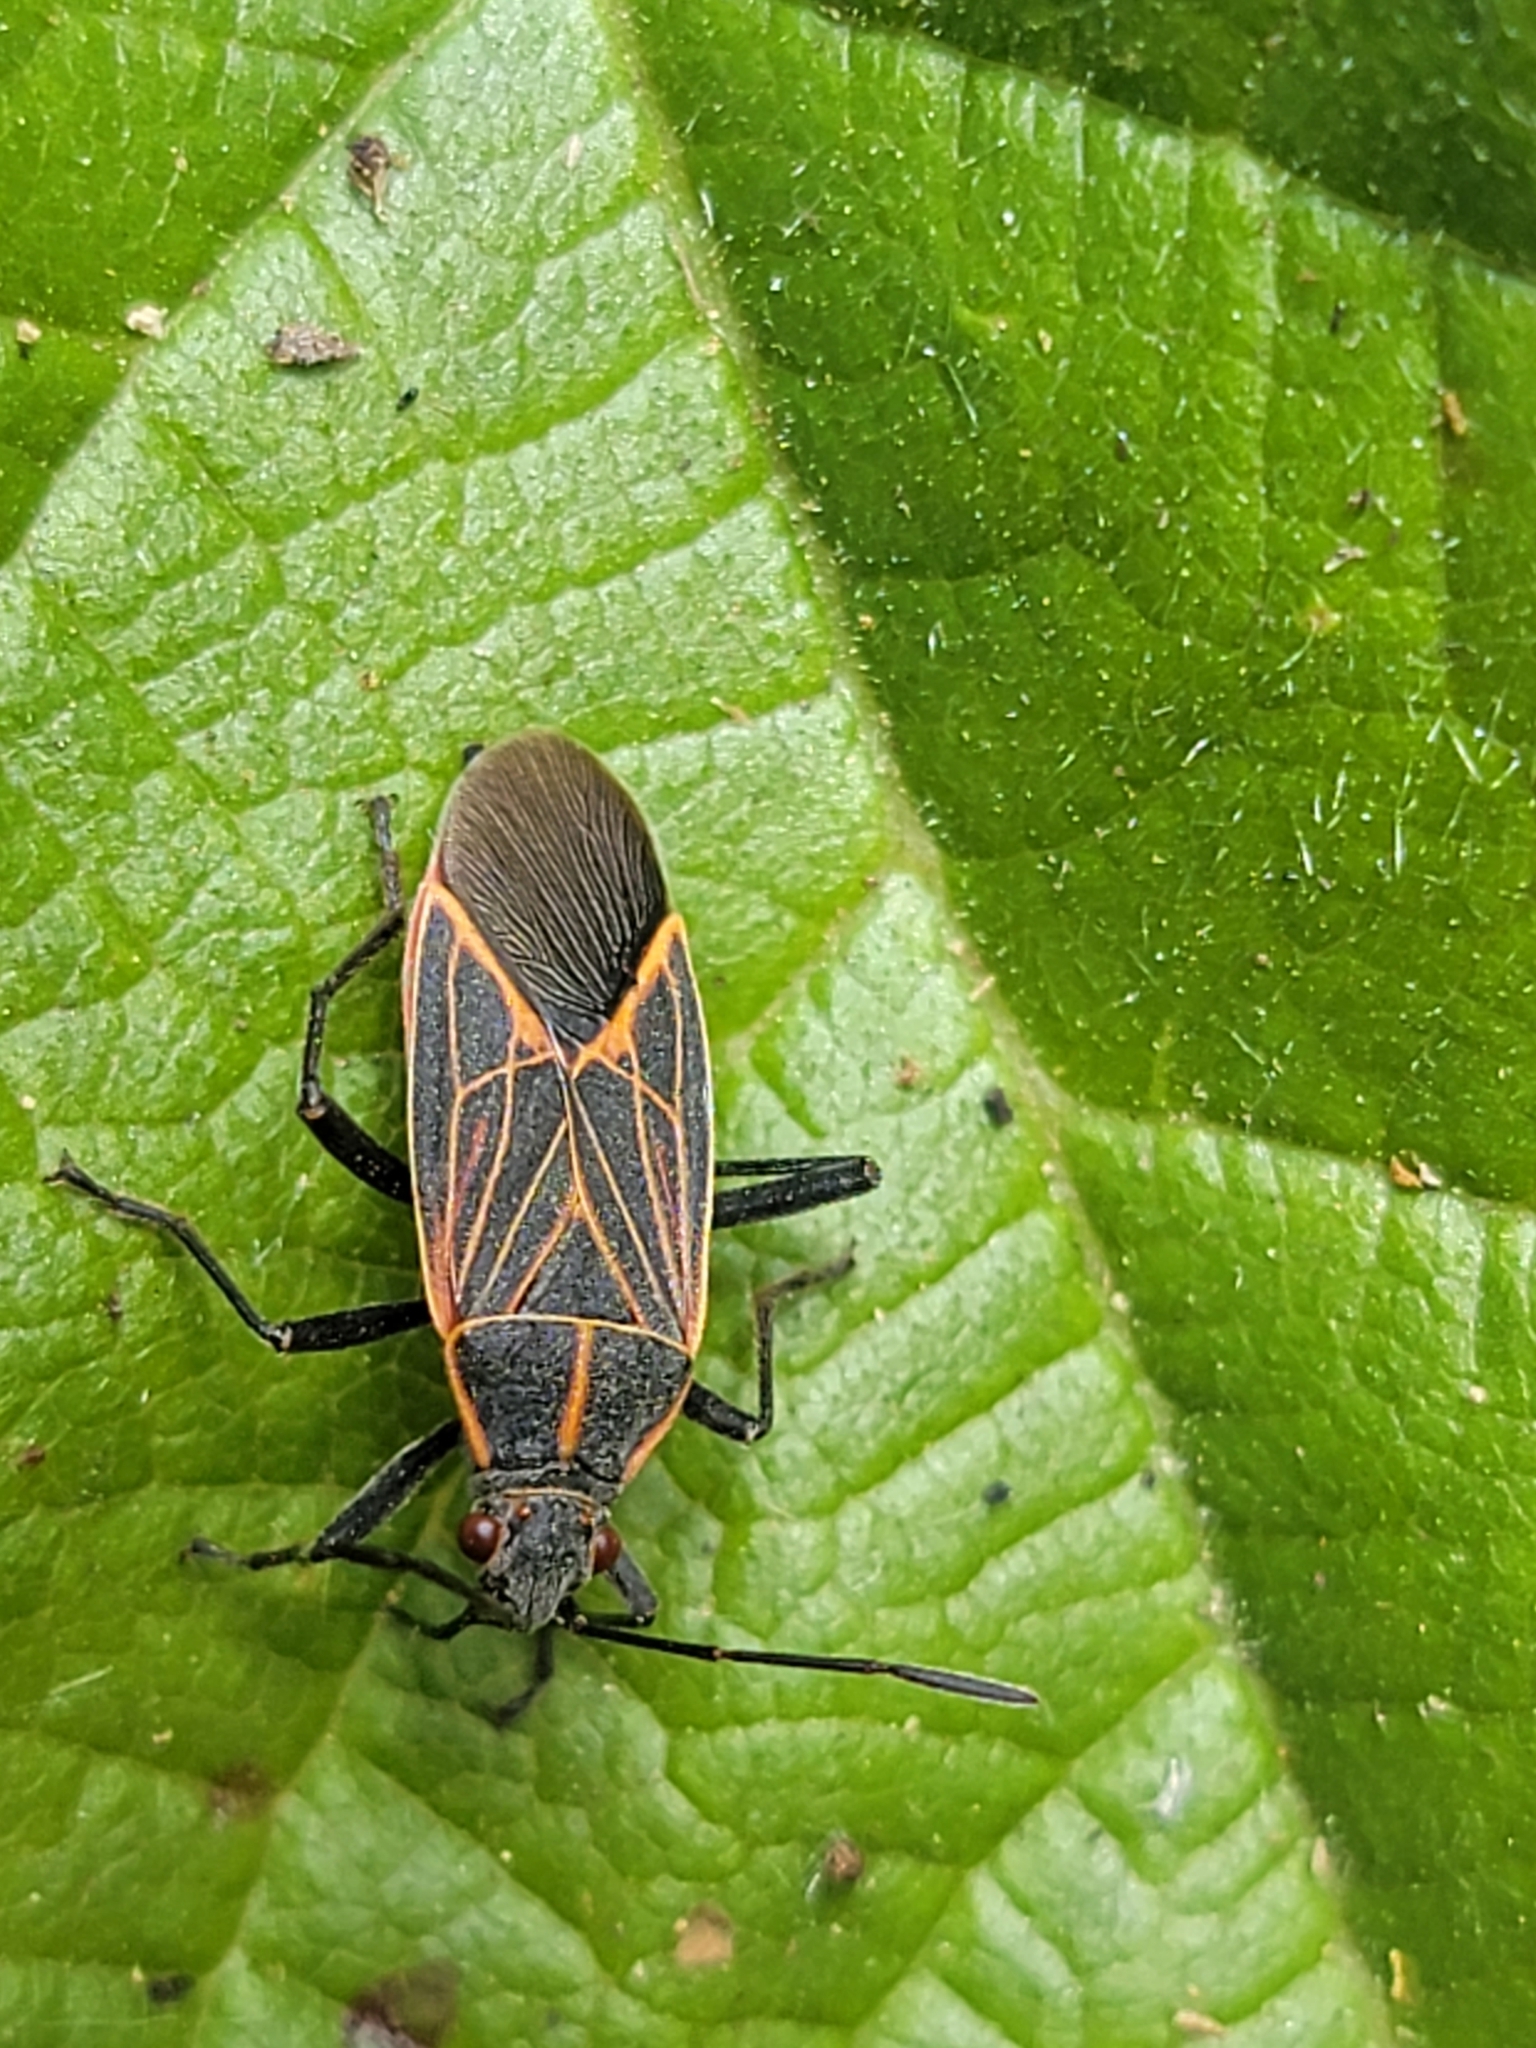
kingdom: Animalia
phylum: Arthropoda
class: Insecta
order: Hemiptera
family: Rhopalidae
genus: Boisea
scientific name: Boisea rubrolineata
